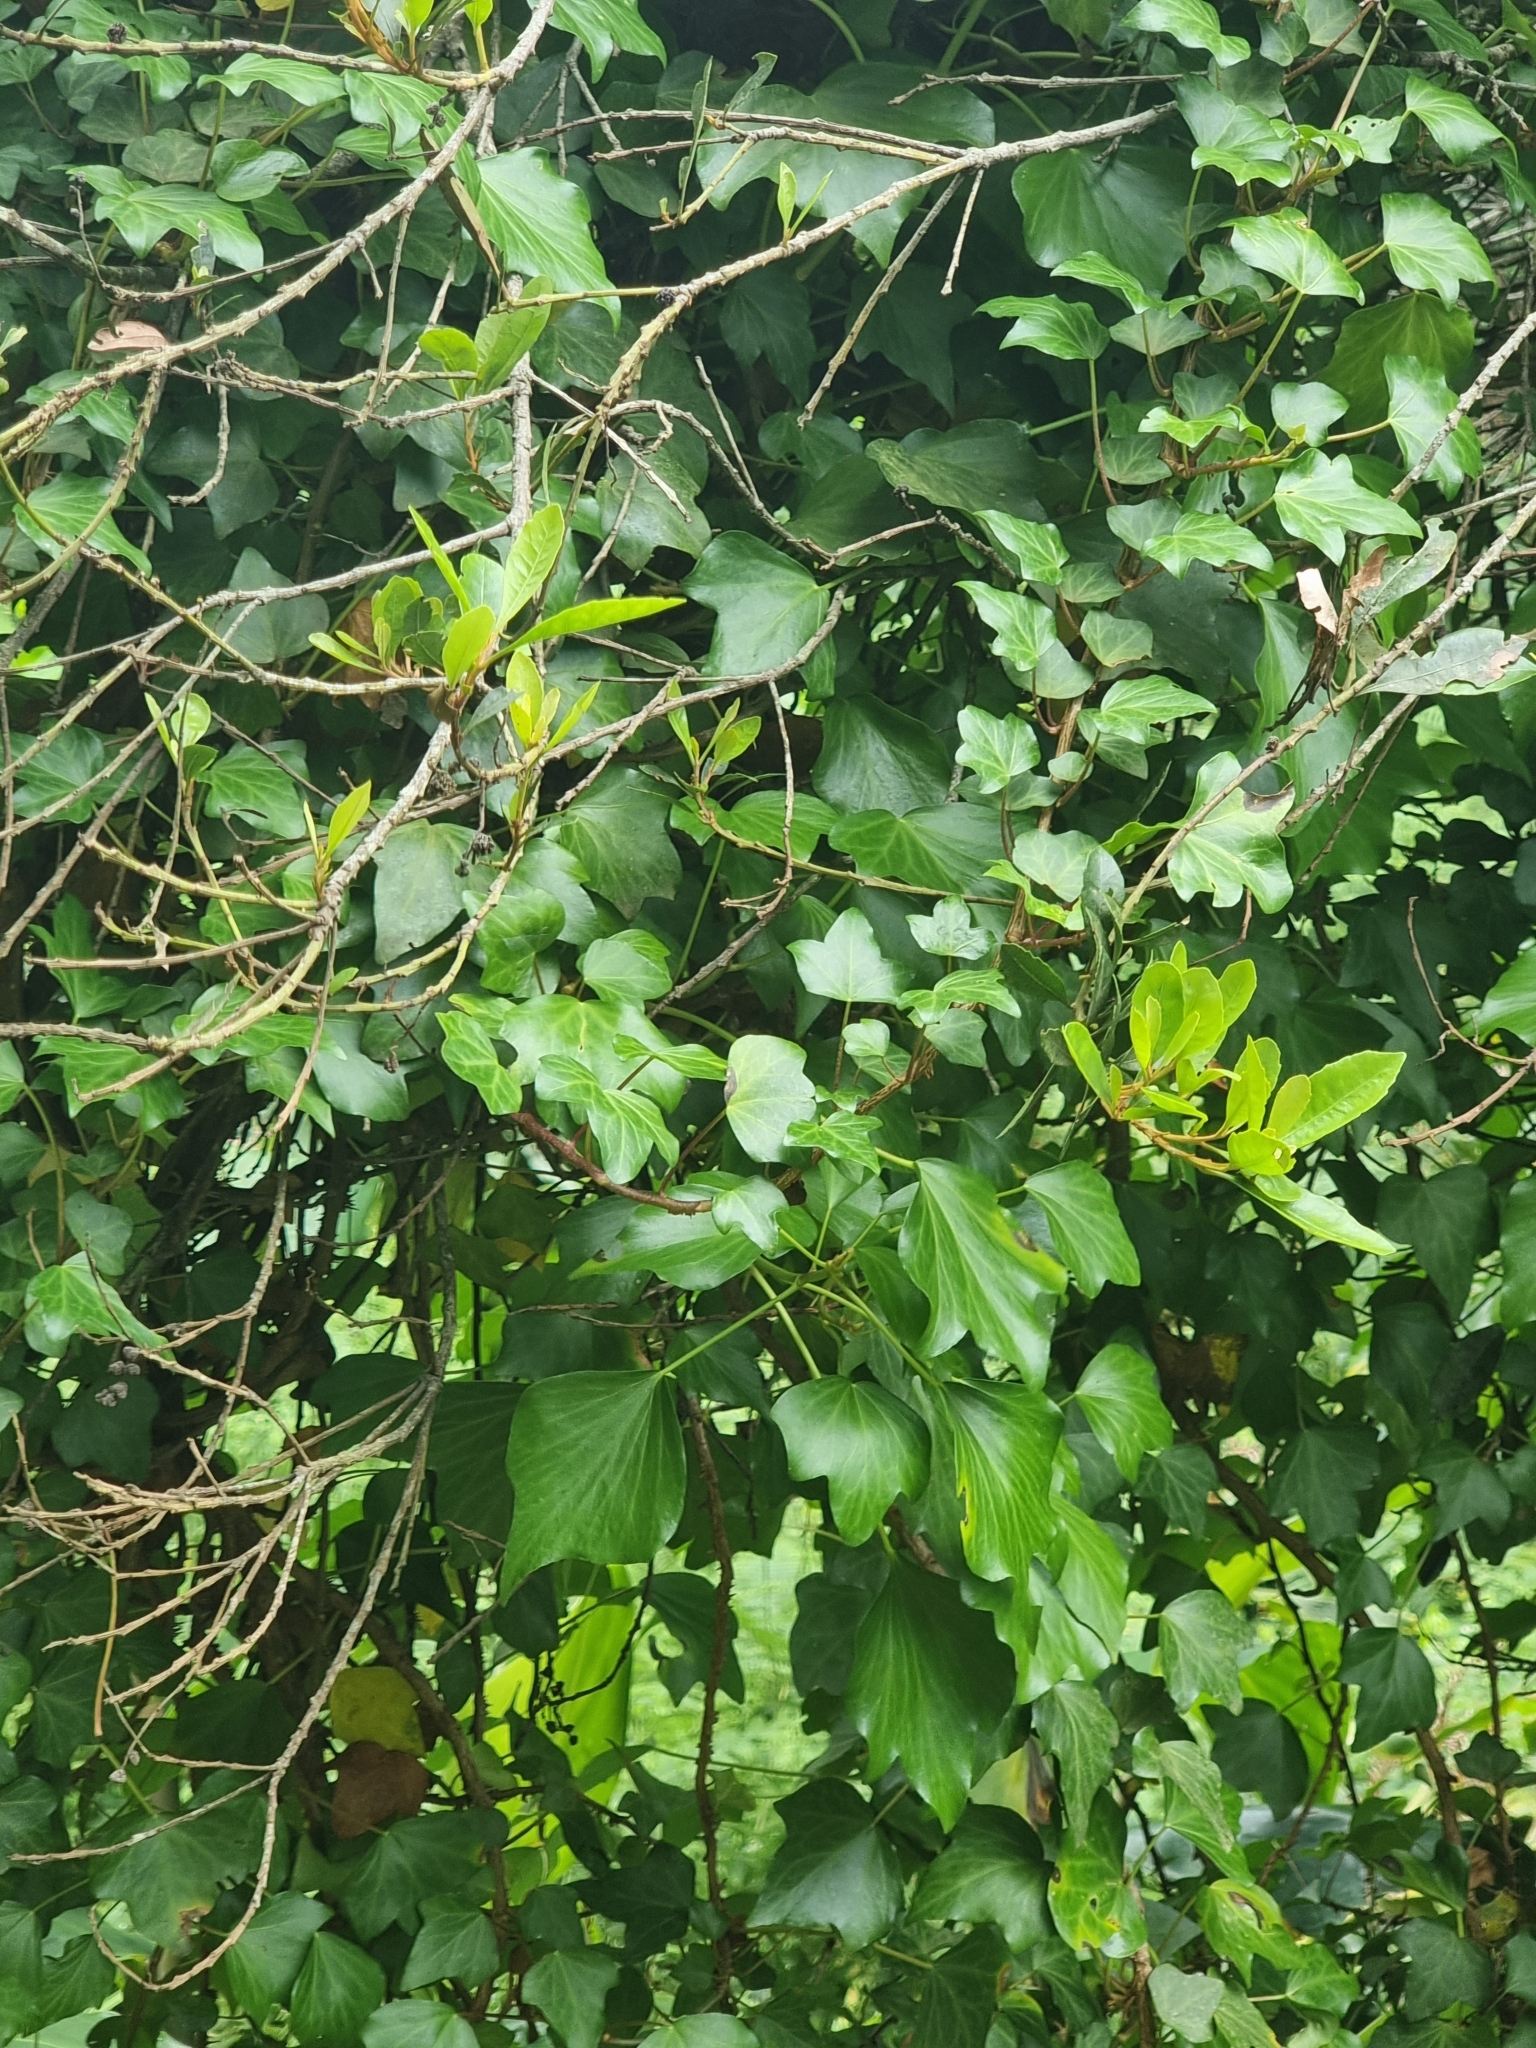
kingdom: Plantae
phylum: Tracheophyta
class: Magnoliopsida
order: Apiales
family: Araliaceae
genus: Hedera
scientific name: Hedera maderensis
